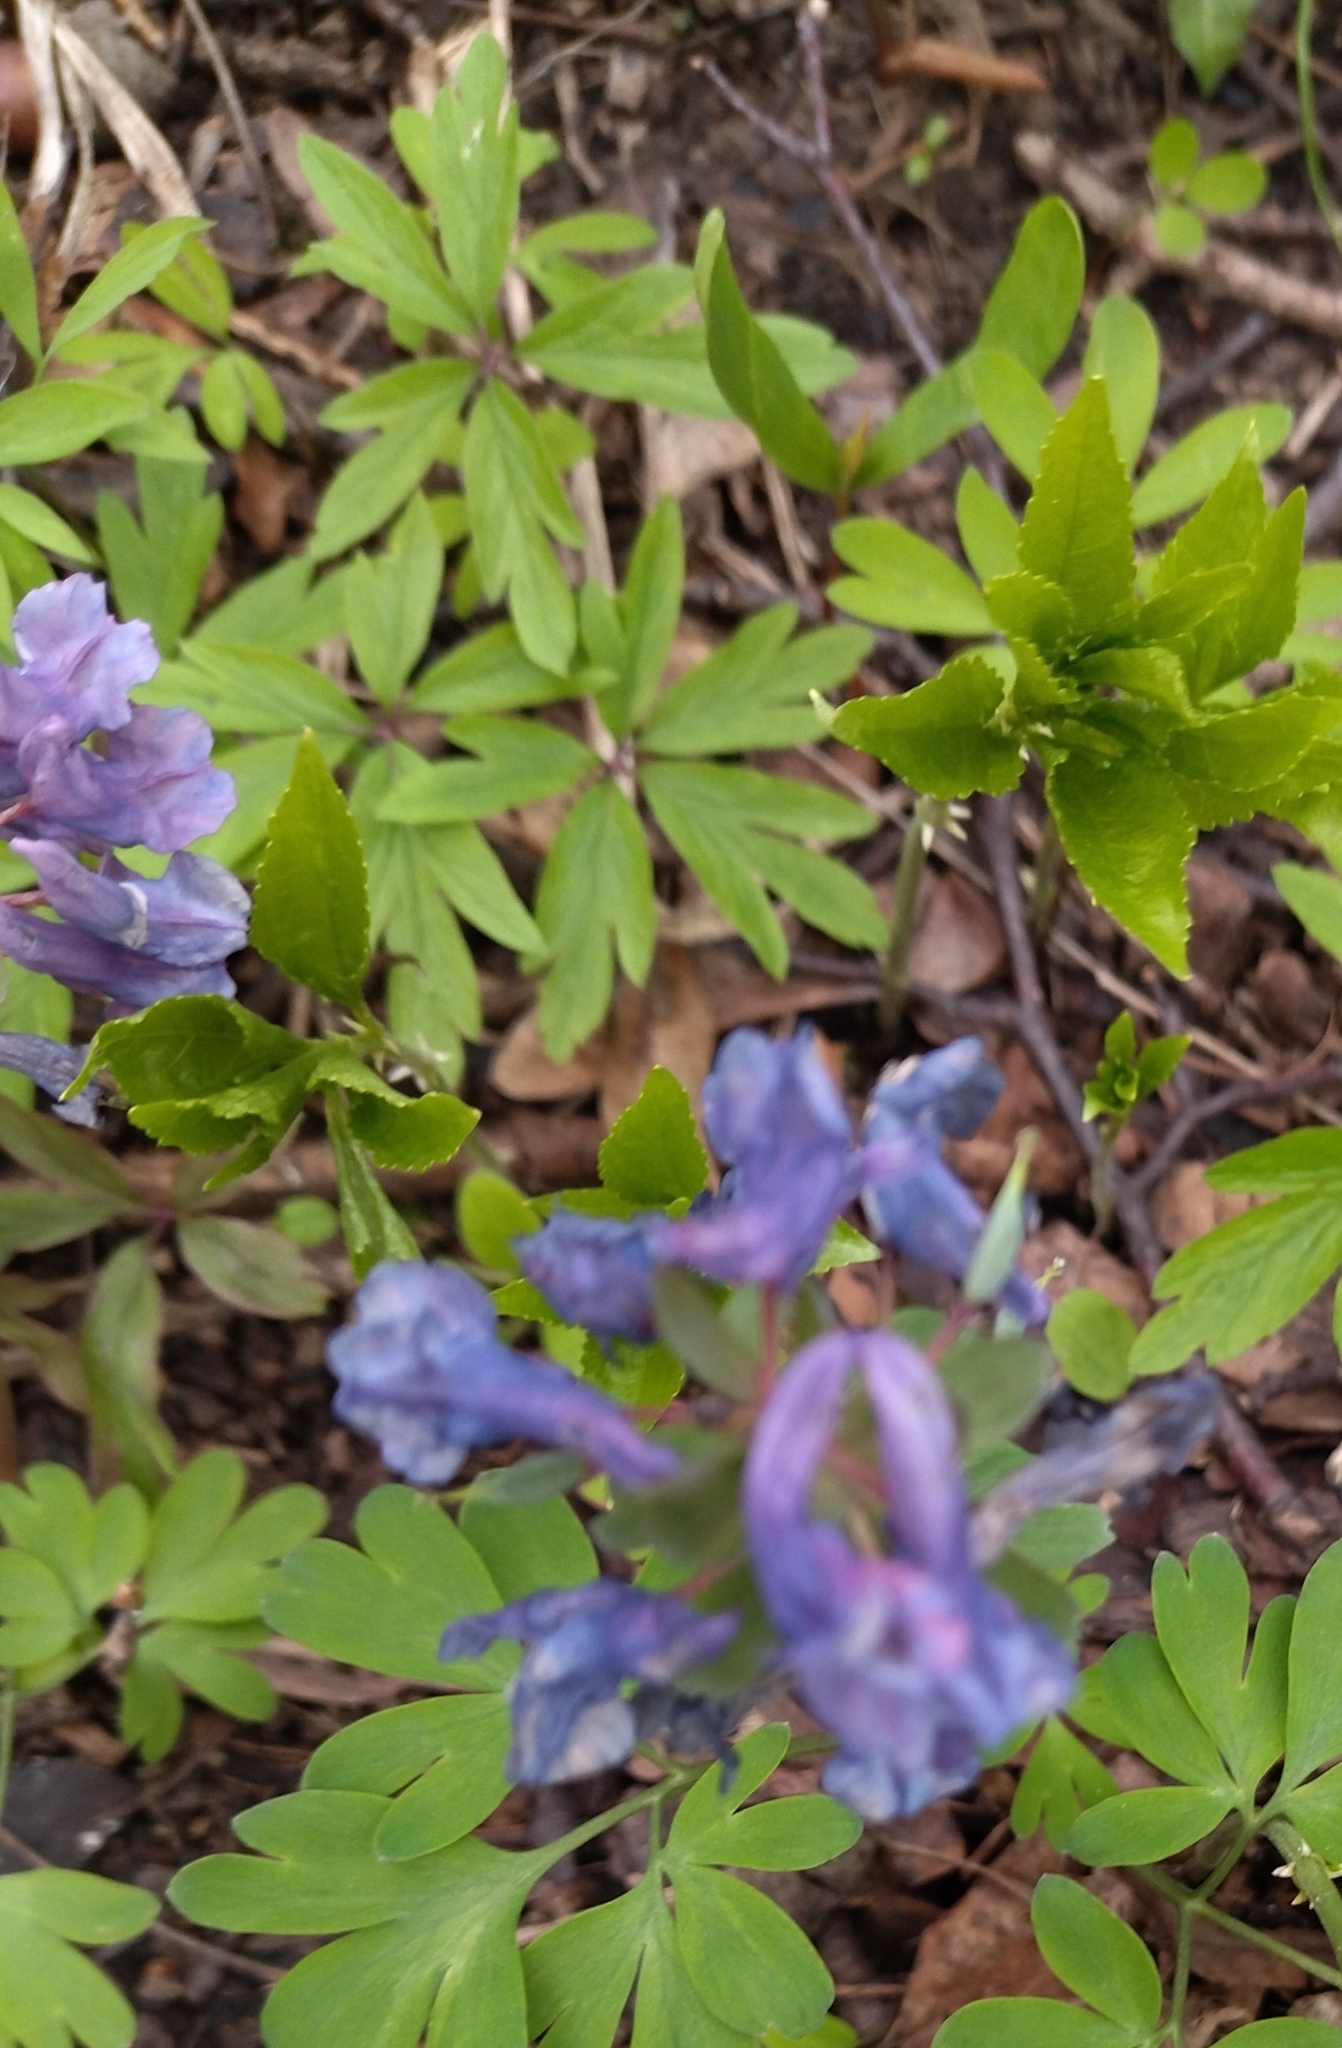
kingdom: Plantae
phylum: Tracheophyta
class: Magnoliopsida
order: Ranunculales
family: Papaveraceae
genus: Corydalis
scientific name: Corydalis solida
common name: Bird-in-a-bush
